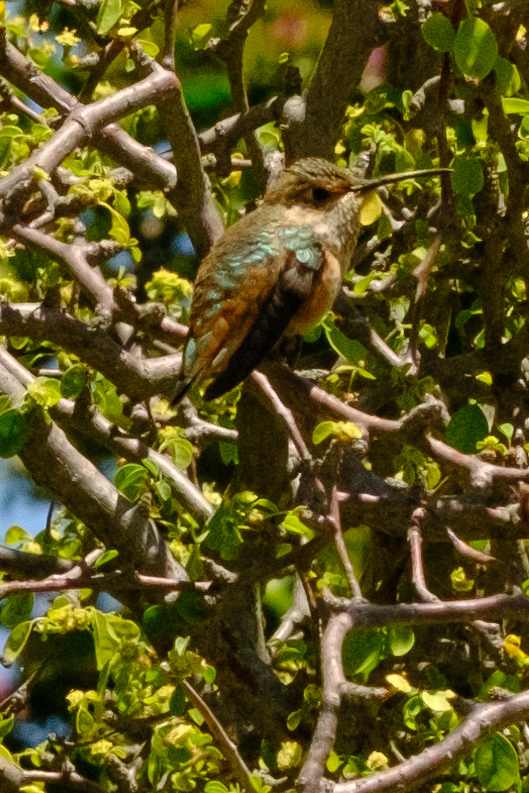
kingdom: Animalia
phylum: Chordata
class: Aves
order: Apodiformes
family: Trochilidae
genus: Selasphorus
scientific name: Selasphorus
